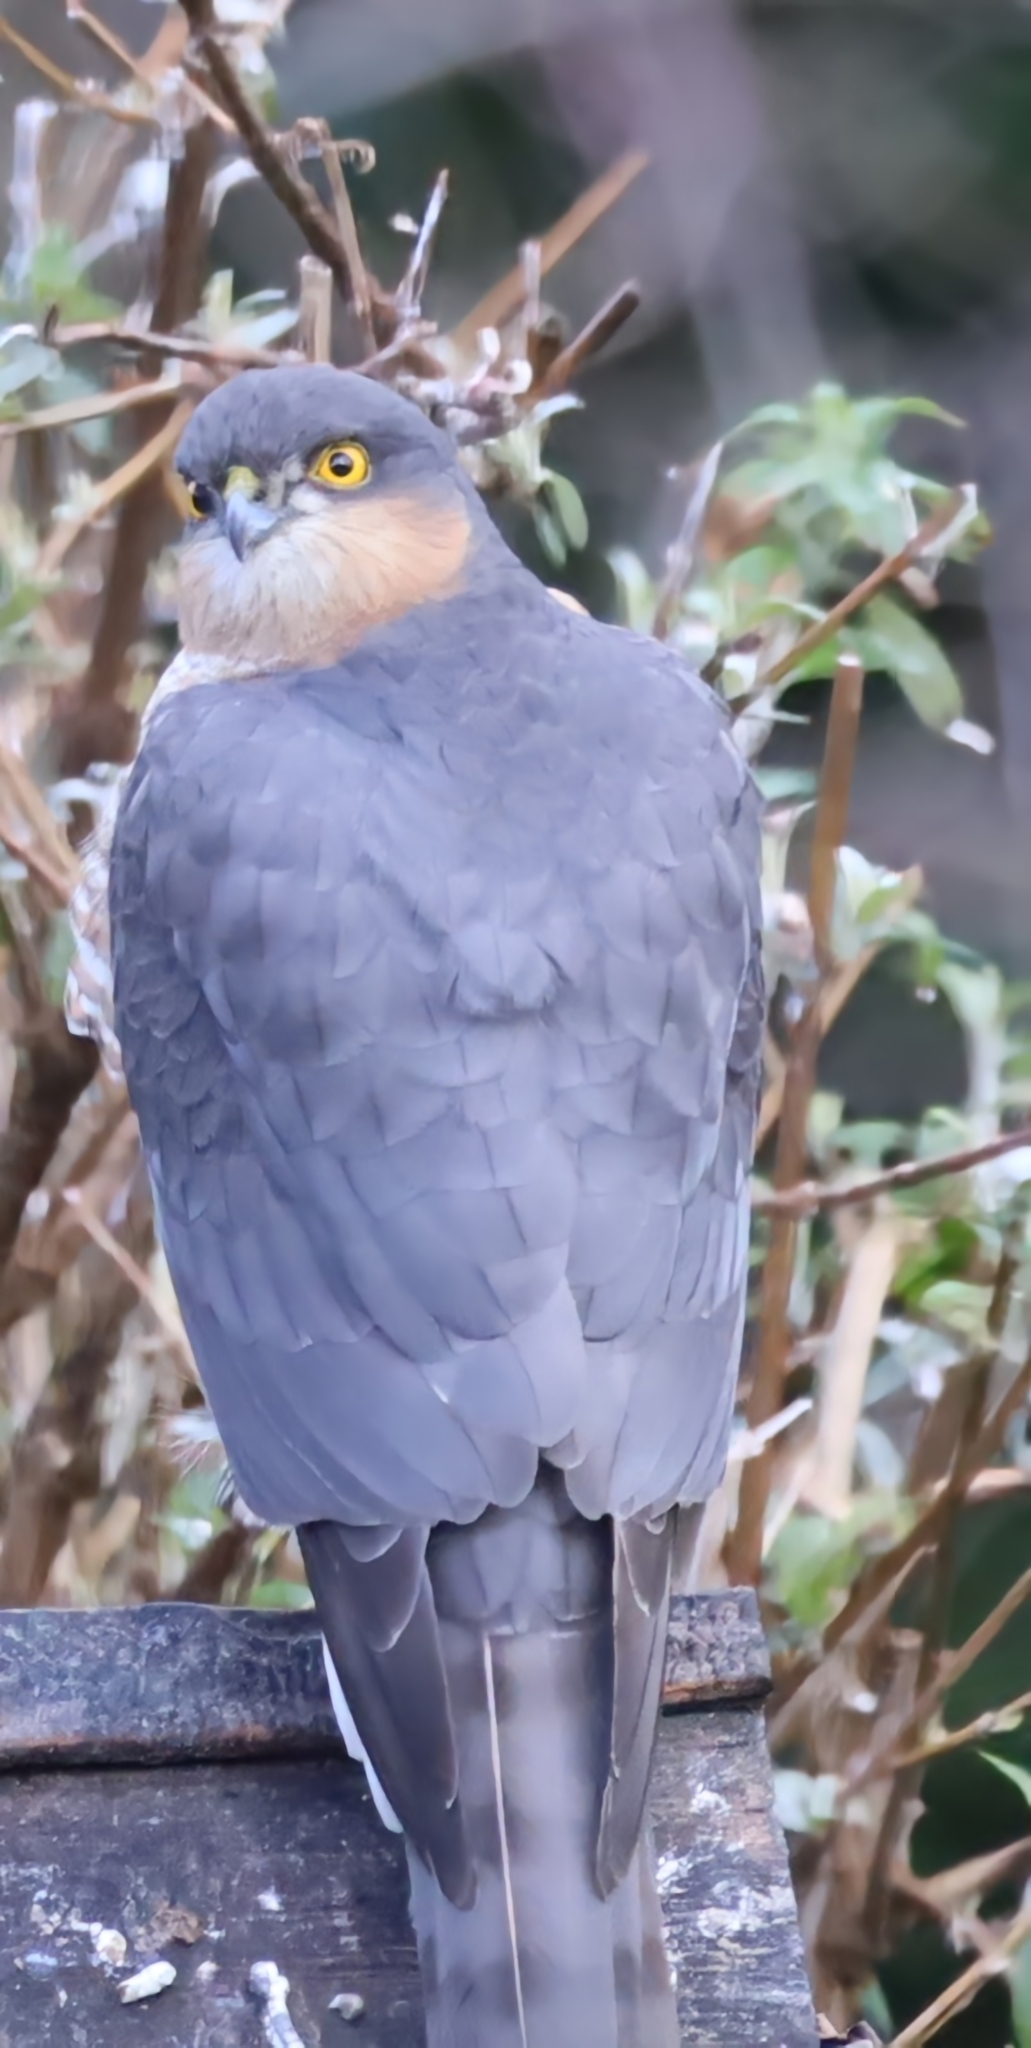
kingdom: Animalia
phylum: Chordata
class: Aves
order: Accipitriformes
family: Accipitridae
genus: Accipiter
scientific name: Accipiter nisus
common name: Eurasian sparrowhawk
